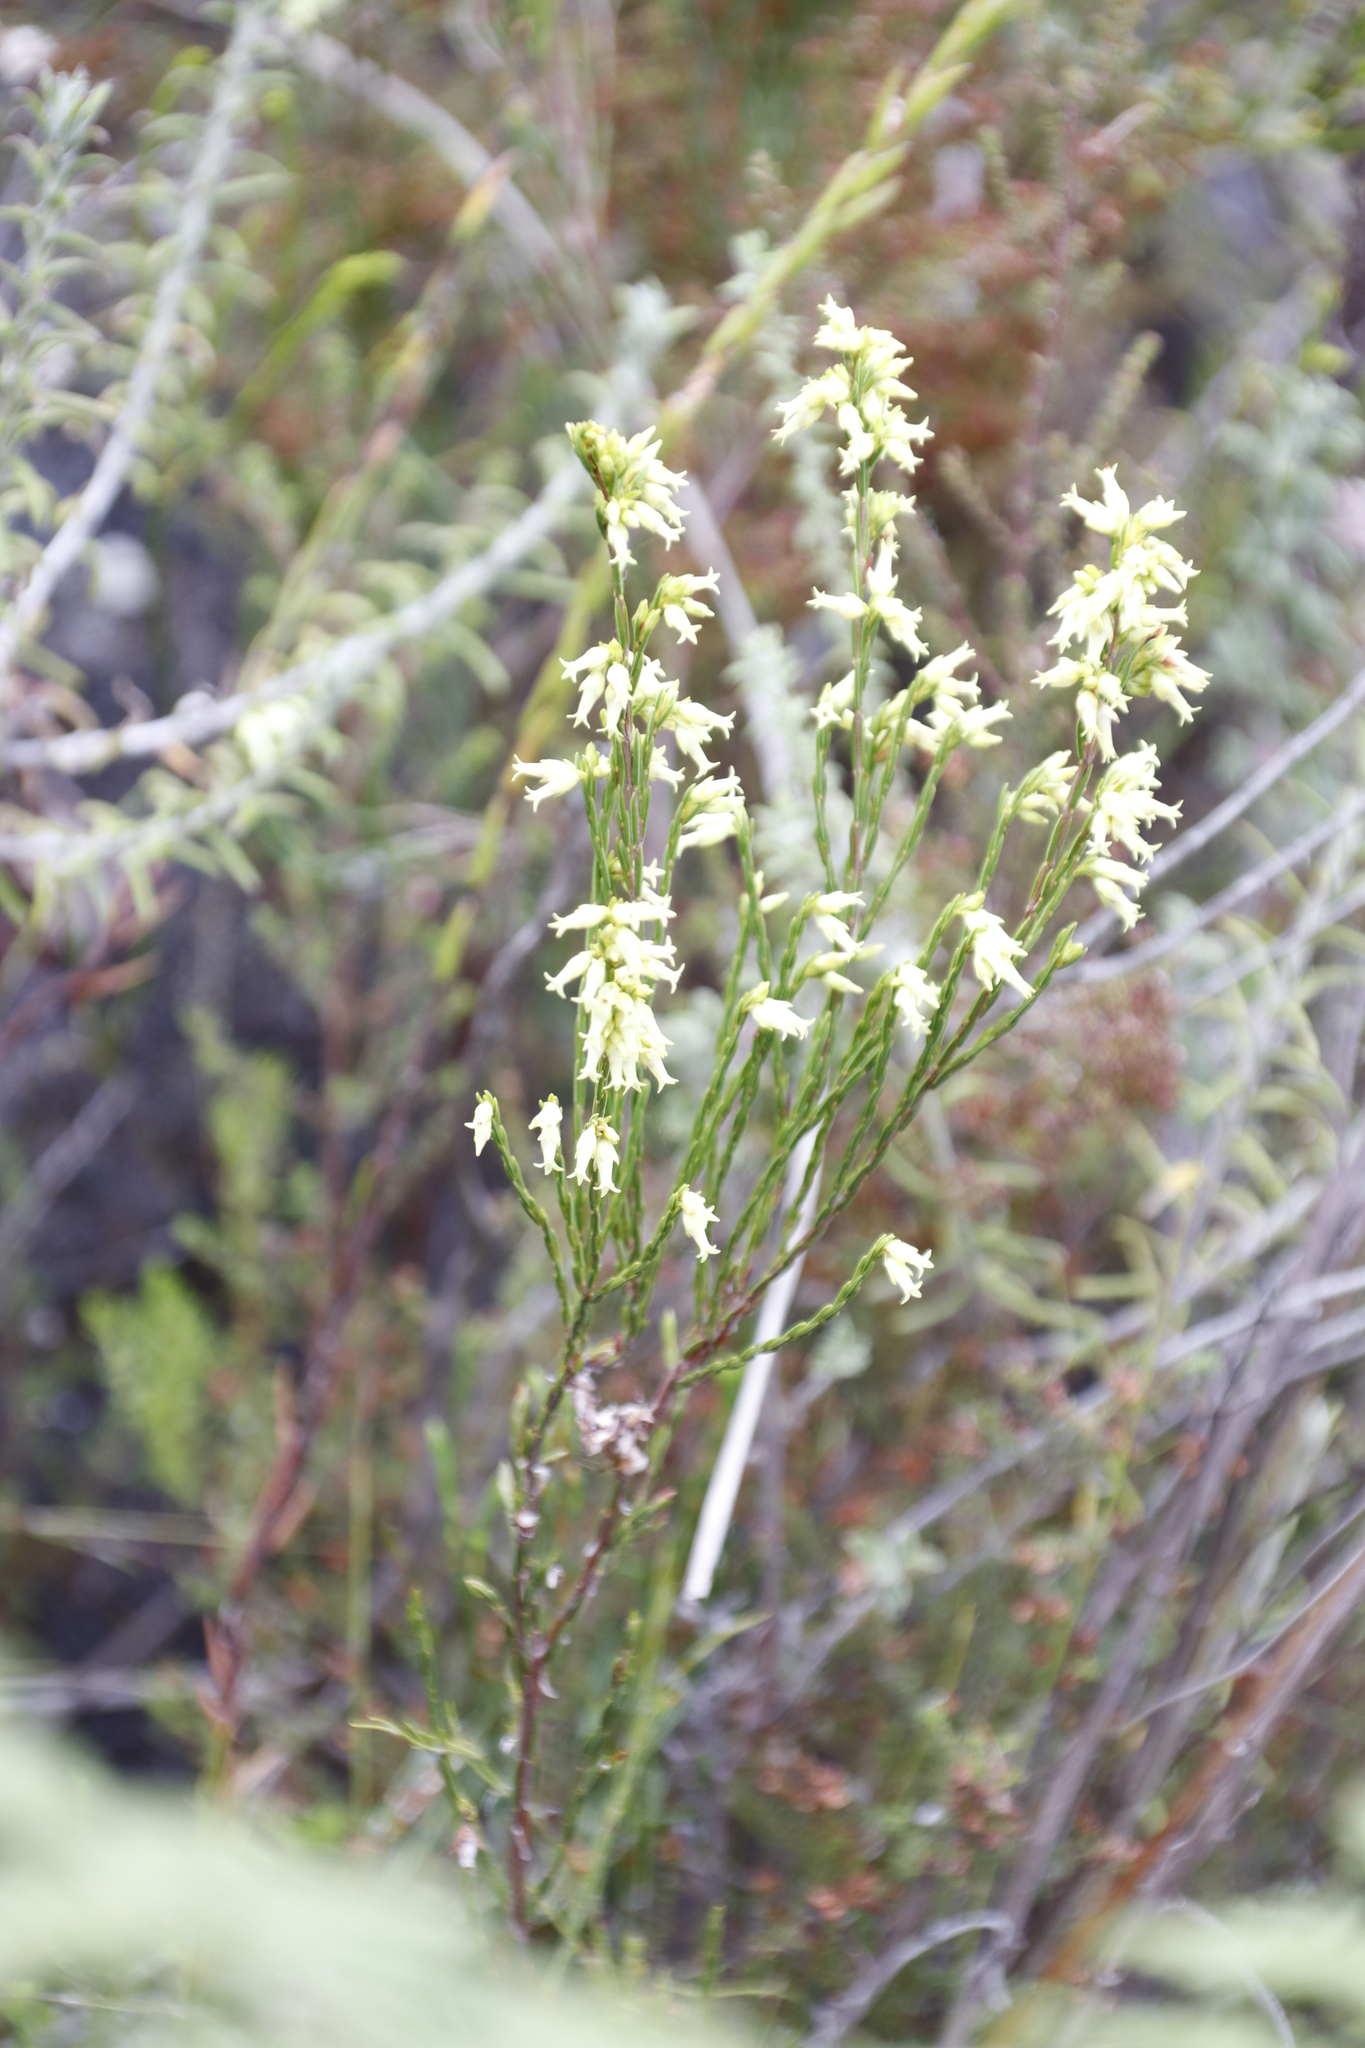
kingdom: Plantae
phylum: Tracheophyta
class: Magnoliopsida
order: Ericales
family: Ericaceae
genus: Erica
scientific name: Erica lutea
